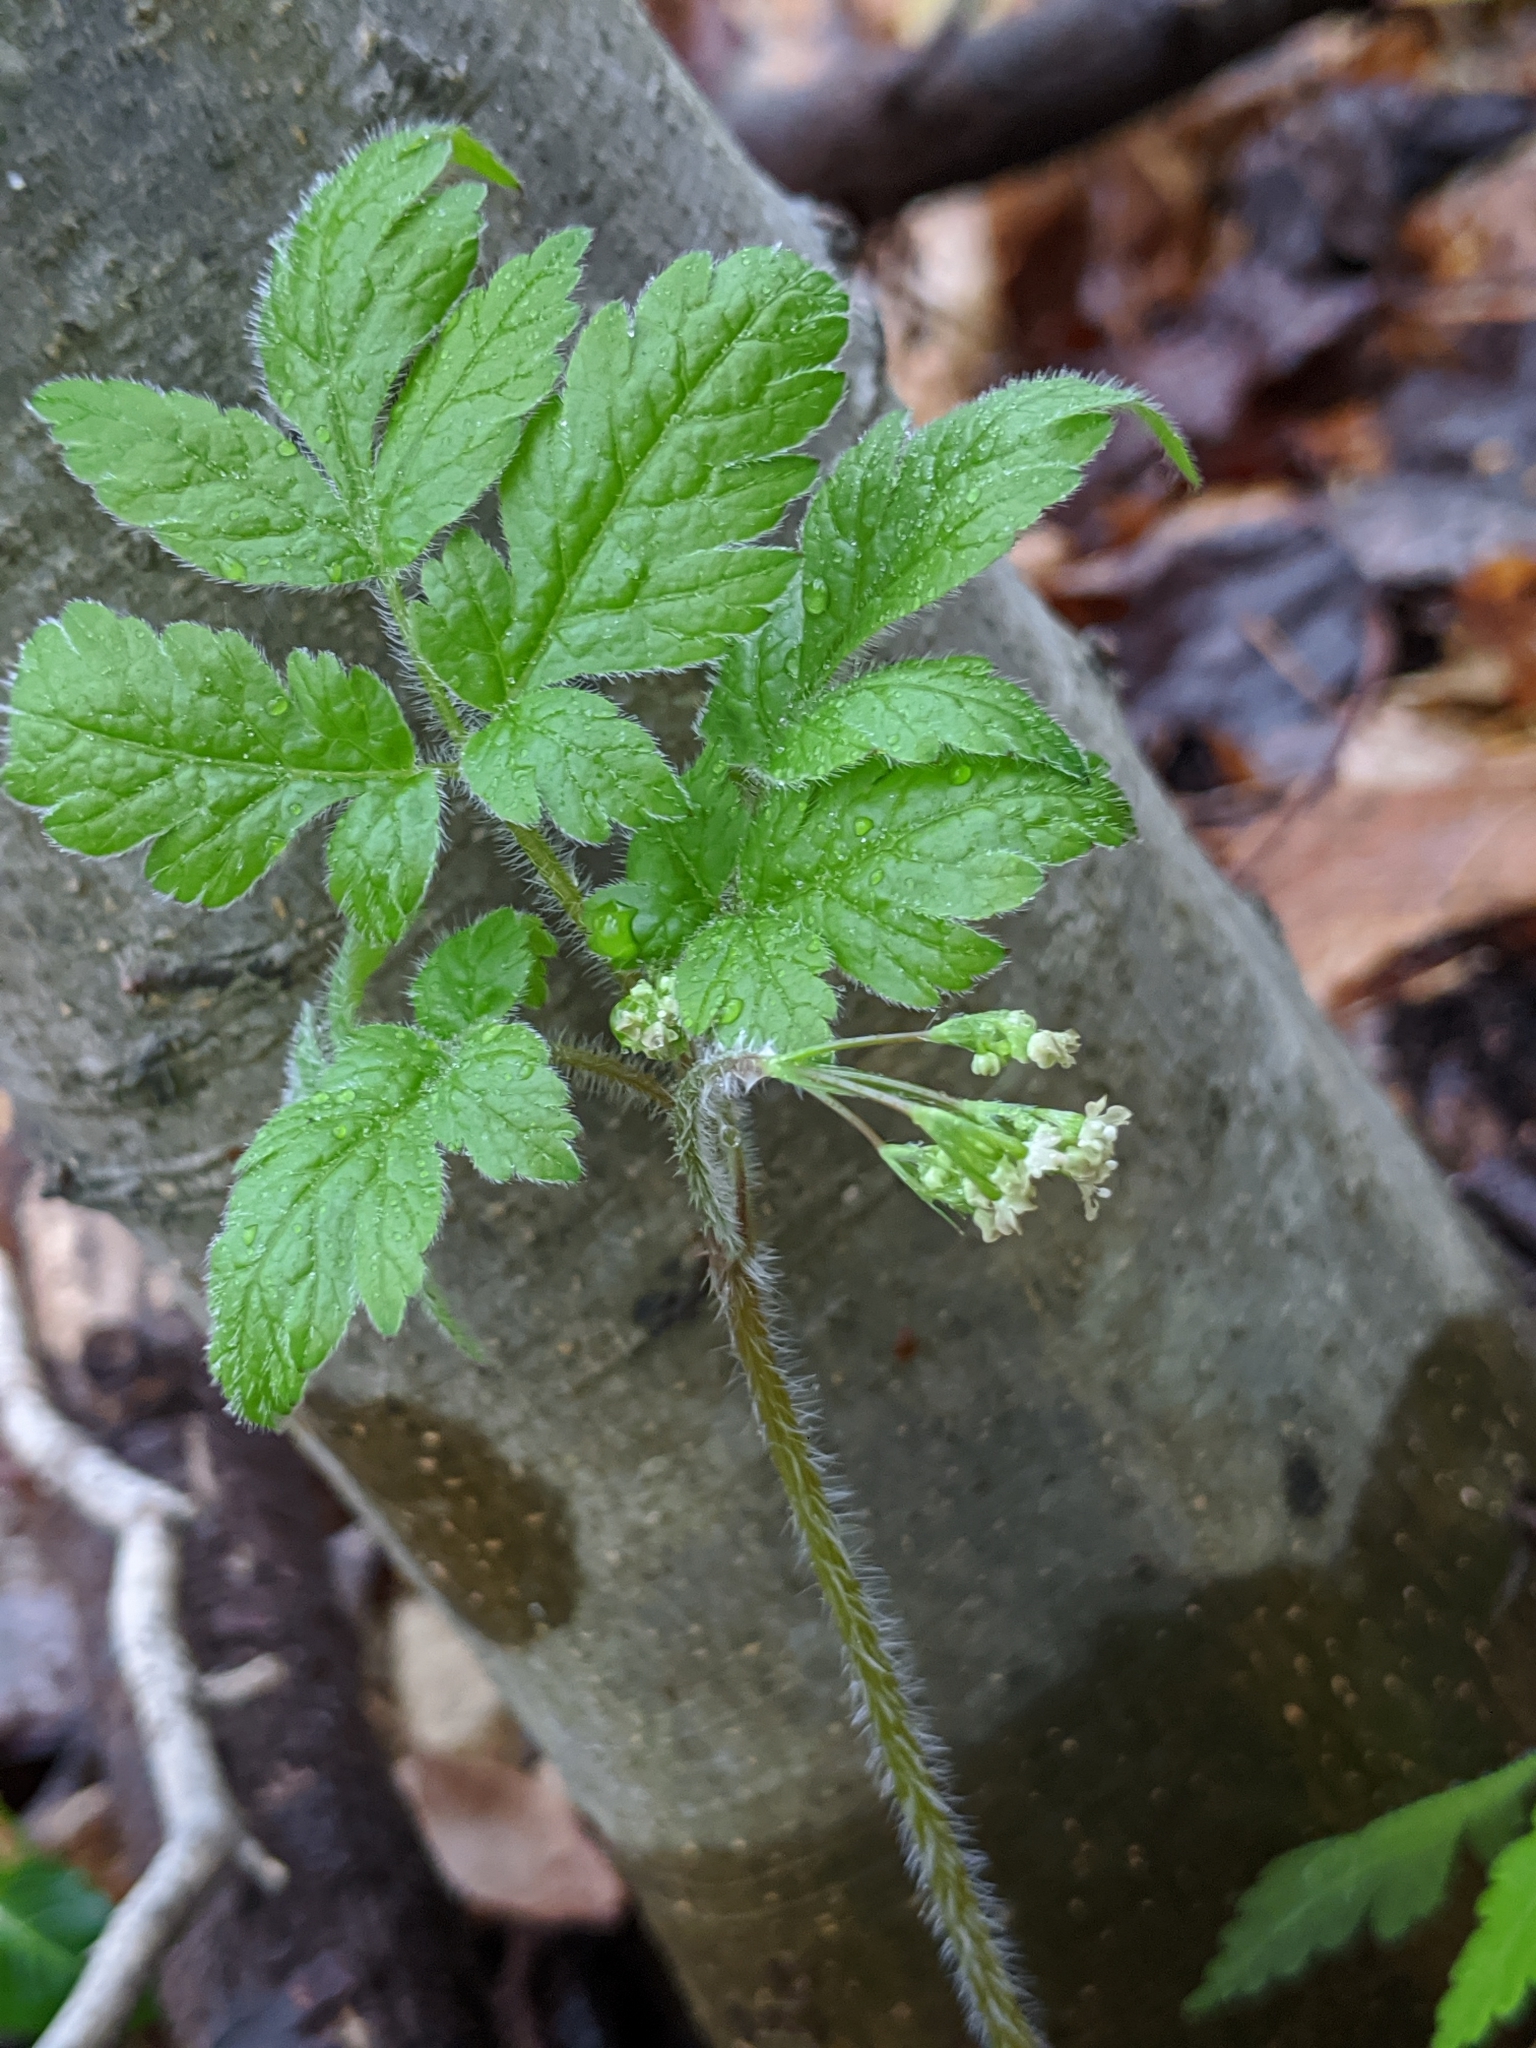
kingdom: Plantae
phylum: Tracheophyta
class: Magnoliopsida
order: Apiales
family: Apiaceae
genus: Osmorhiza
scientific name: Osmorhiza claytonii
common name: Hairy sweet cicely
